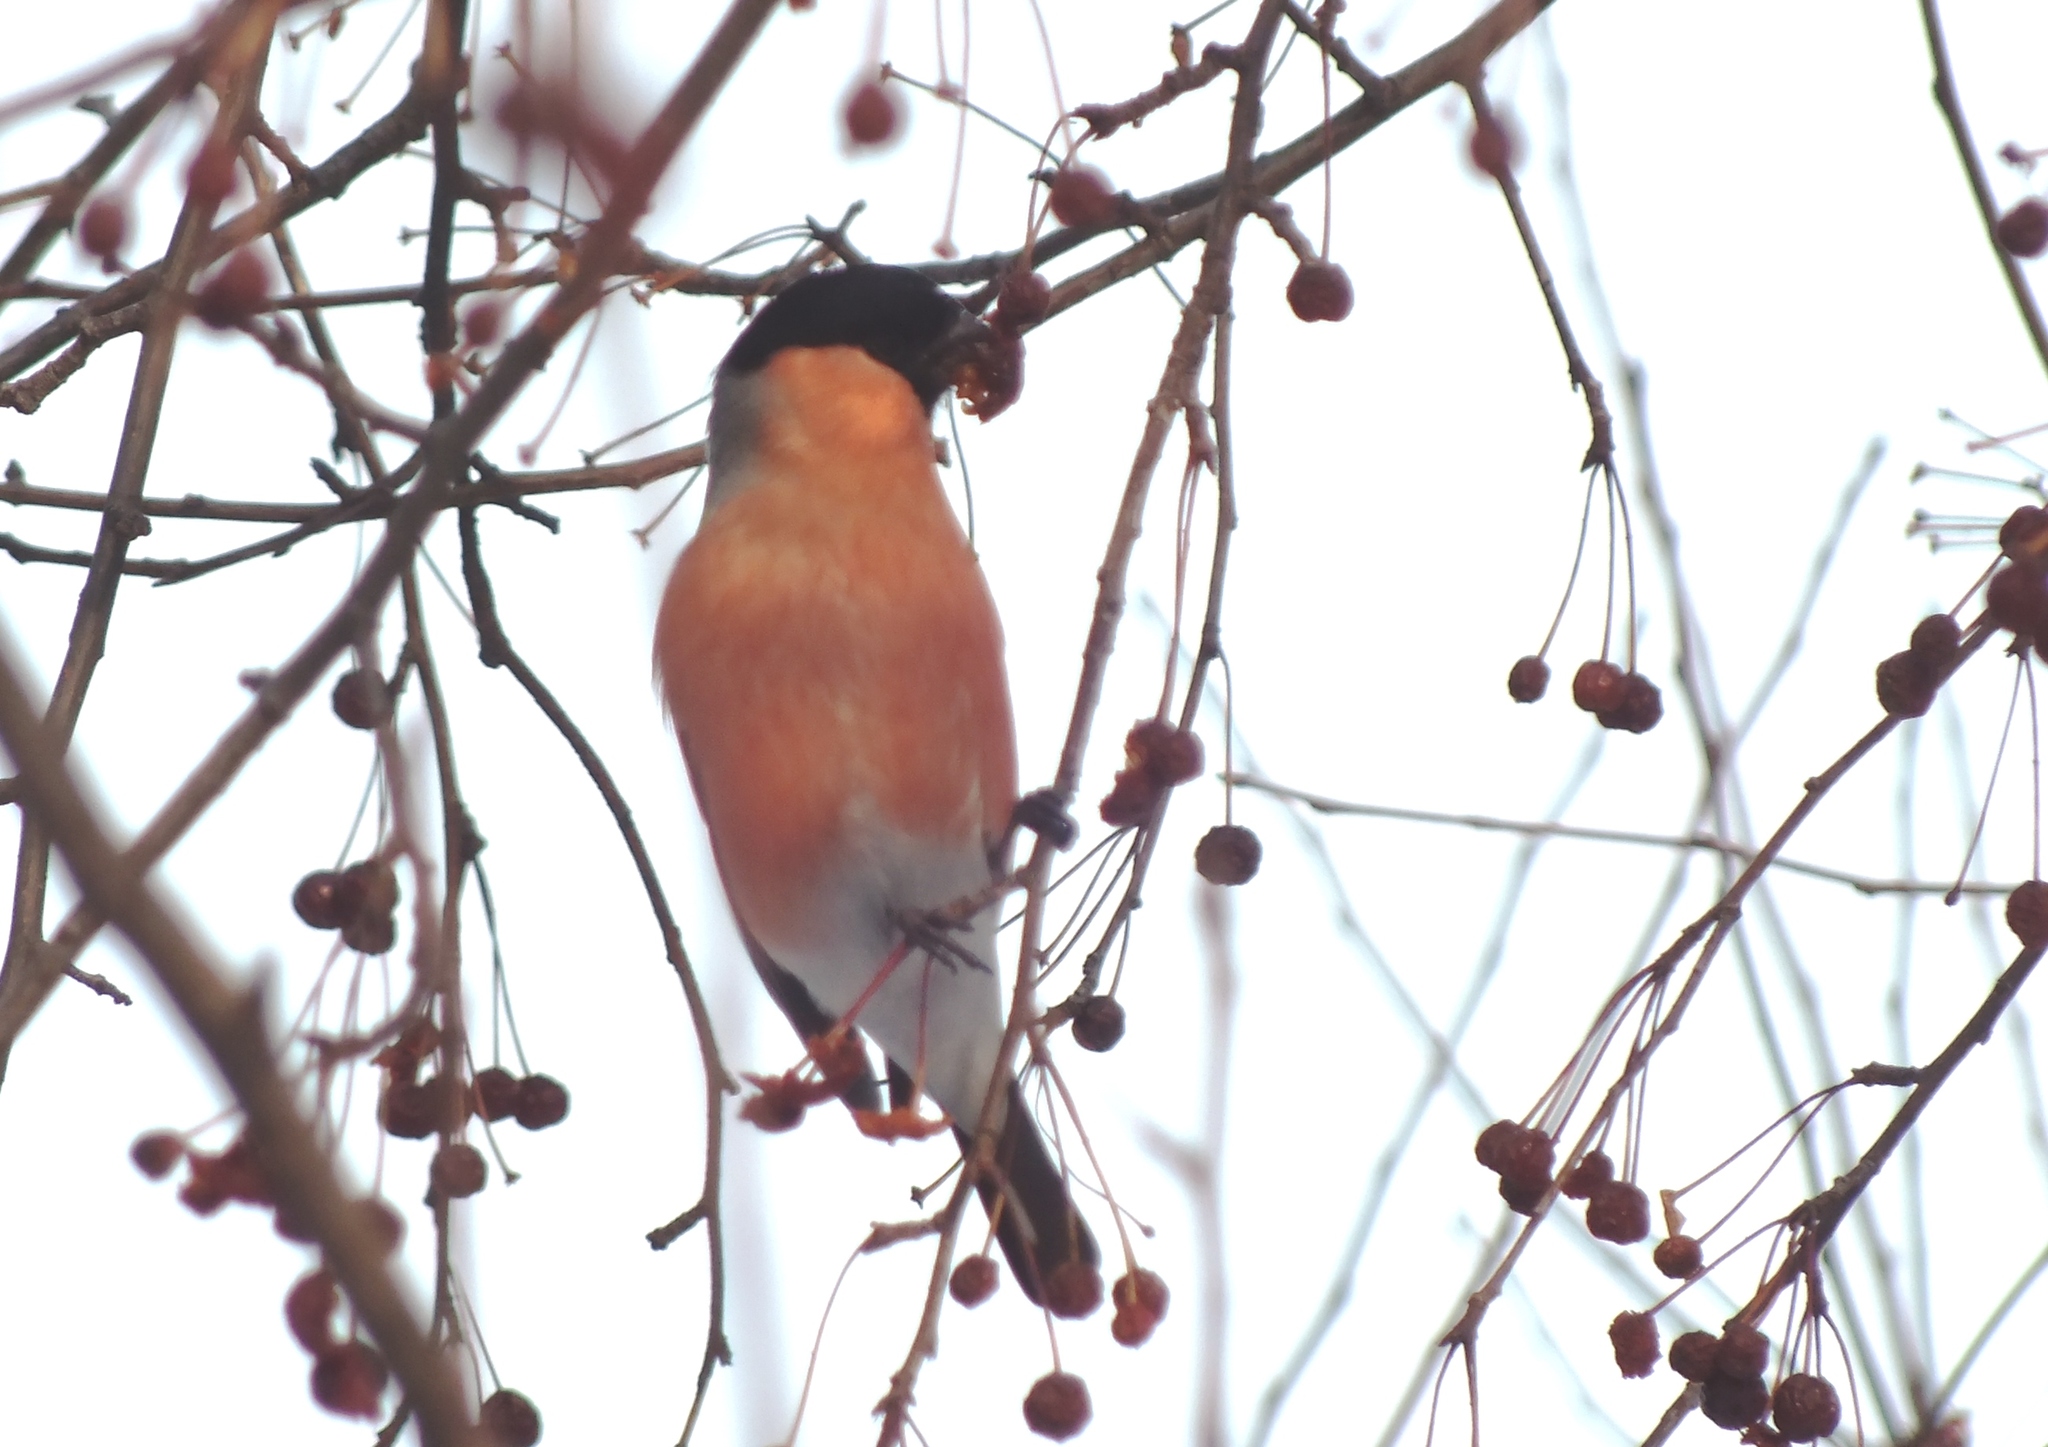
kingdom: Animalia
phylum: Chordata
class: Aves
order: Passeriformes
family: Fringillidae
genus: Pyrrhula
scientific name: Pyrrhula pyrrhula
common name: Eurasian bullfinch
